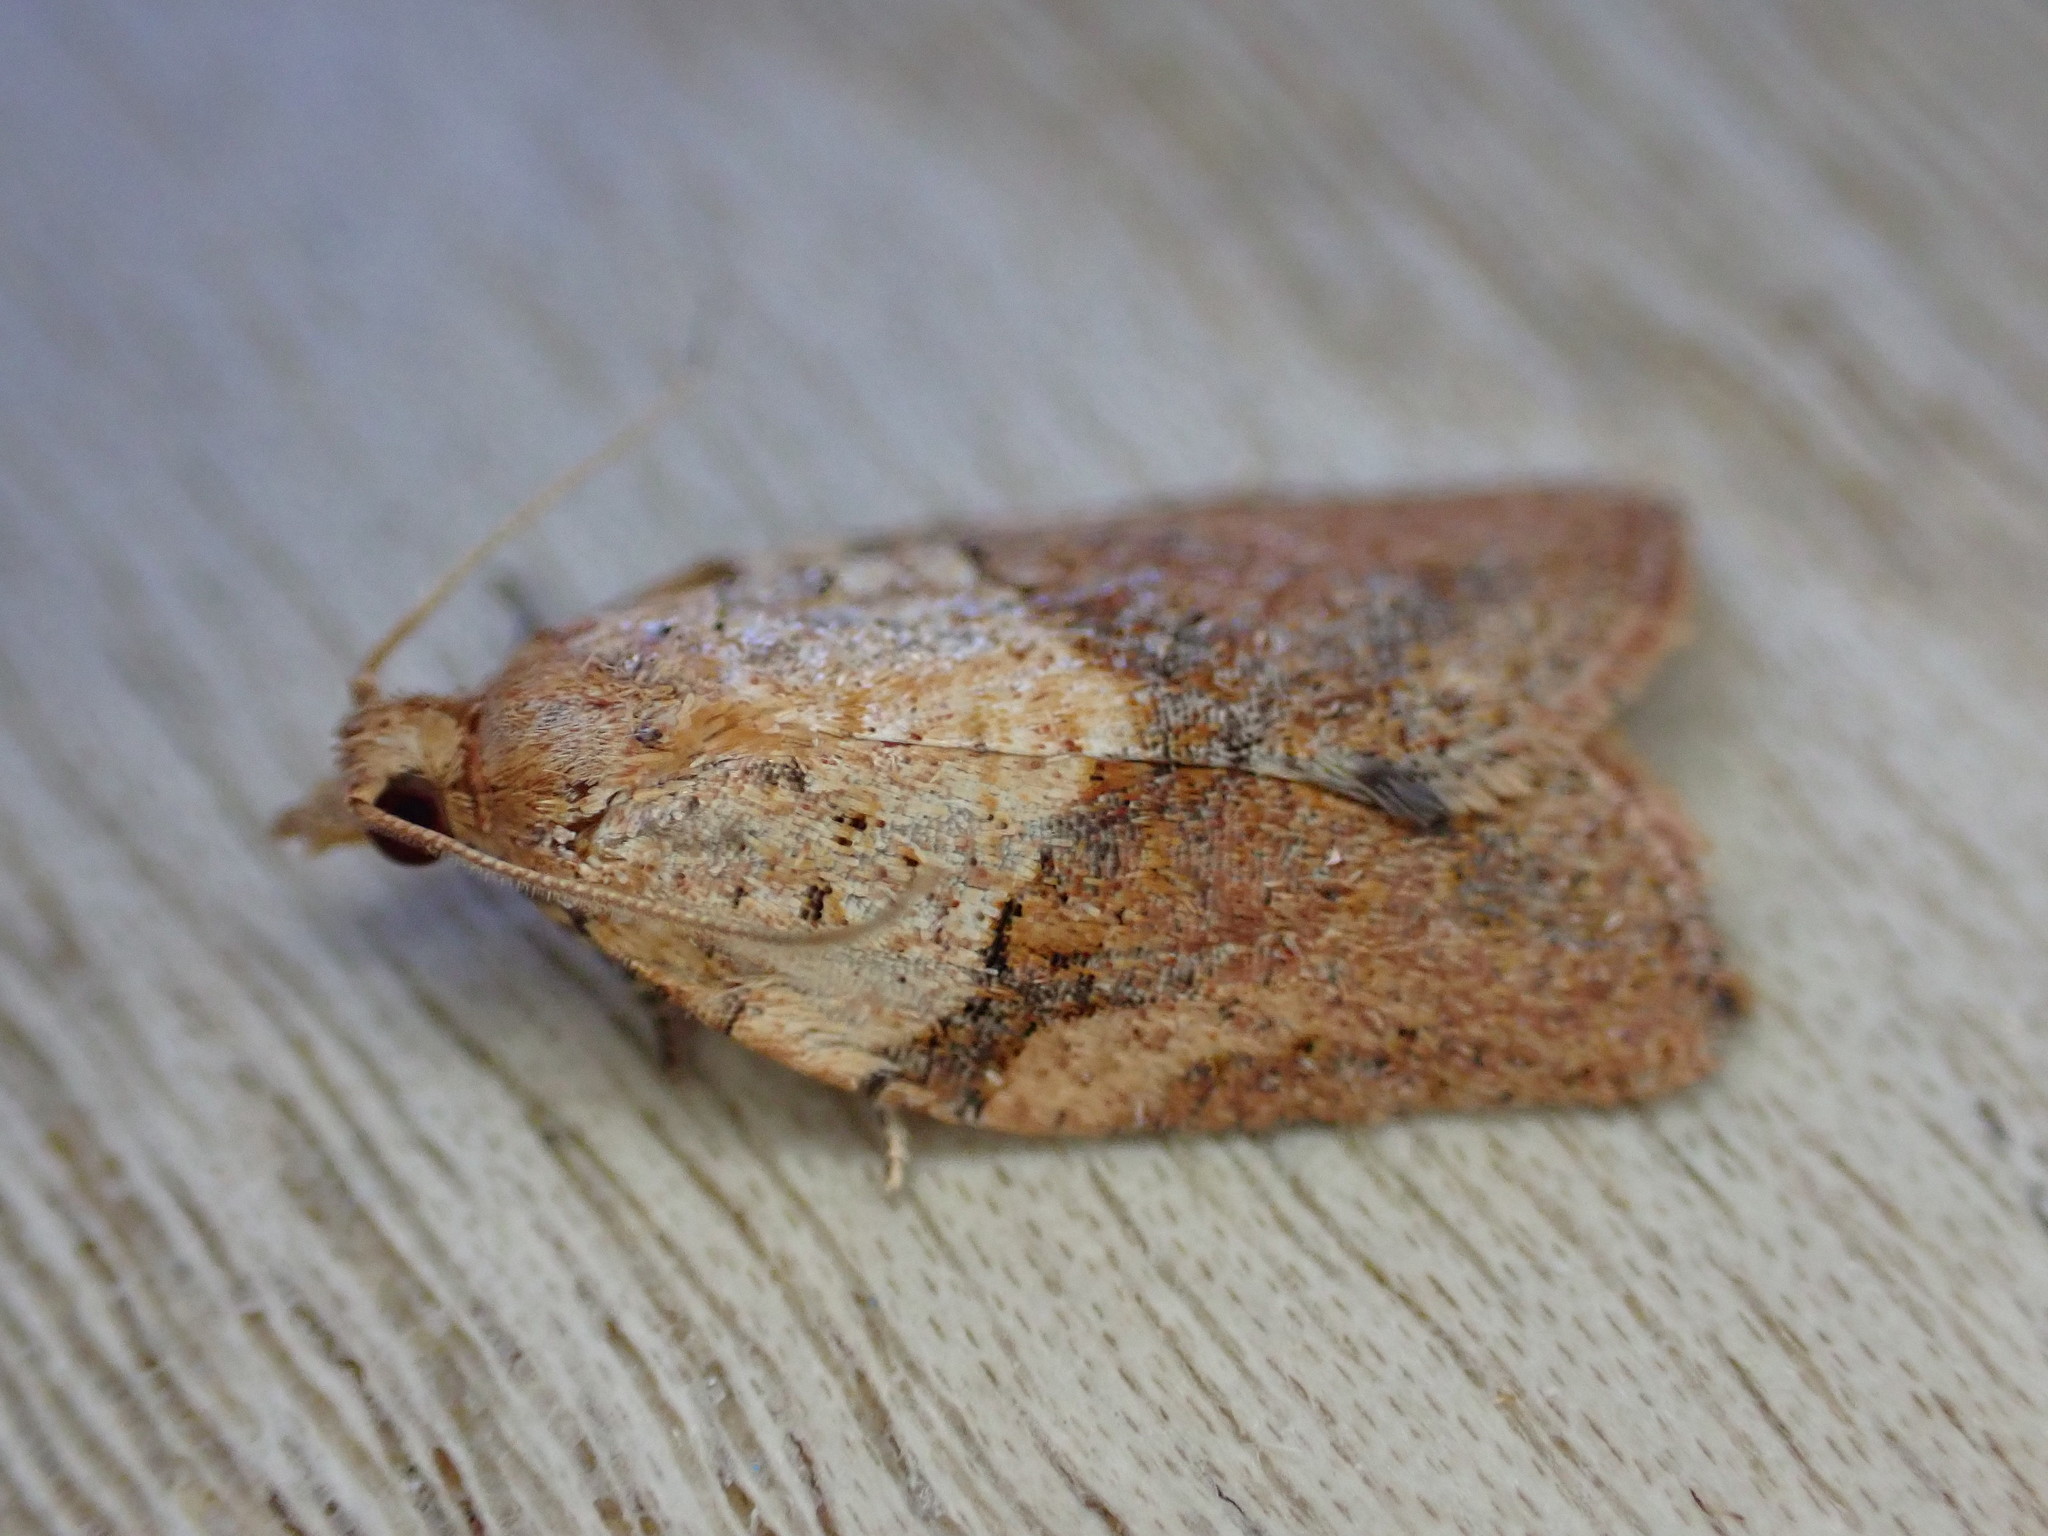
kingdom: Animalia
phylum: Arthropoda
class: Insecta
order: Lepidoptera
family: Tortricidae
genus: Epiphyas
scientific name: Epiphyas postvittana
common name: Light brown apple moth
